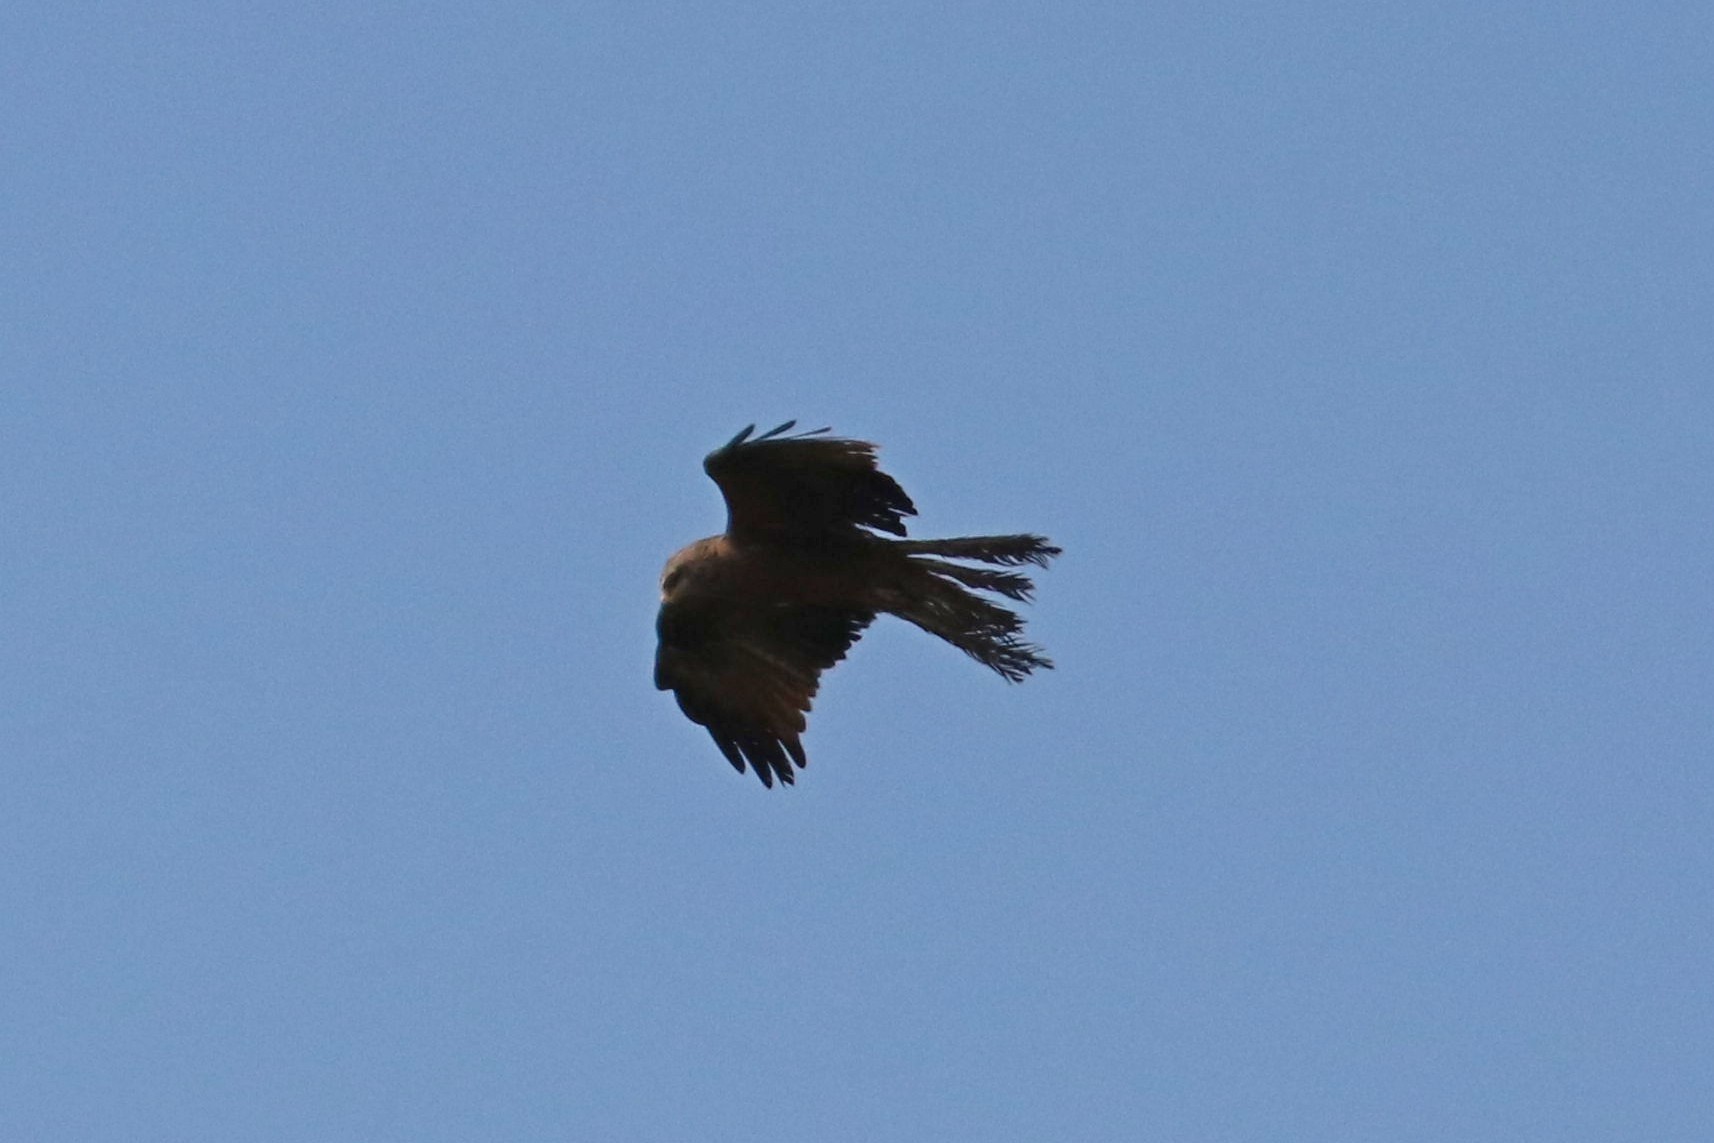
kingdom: Animalia
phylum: Chordata
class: Aves
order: Accipitriformes
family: Accipitridae
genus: Milvus
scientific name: Milvus migrans
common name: Black kite
